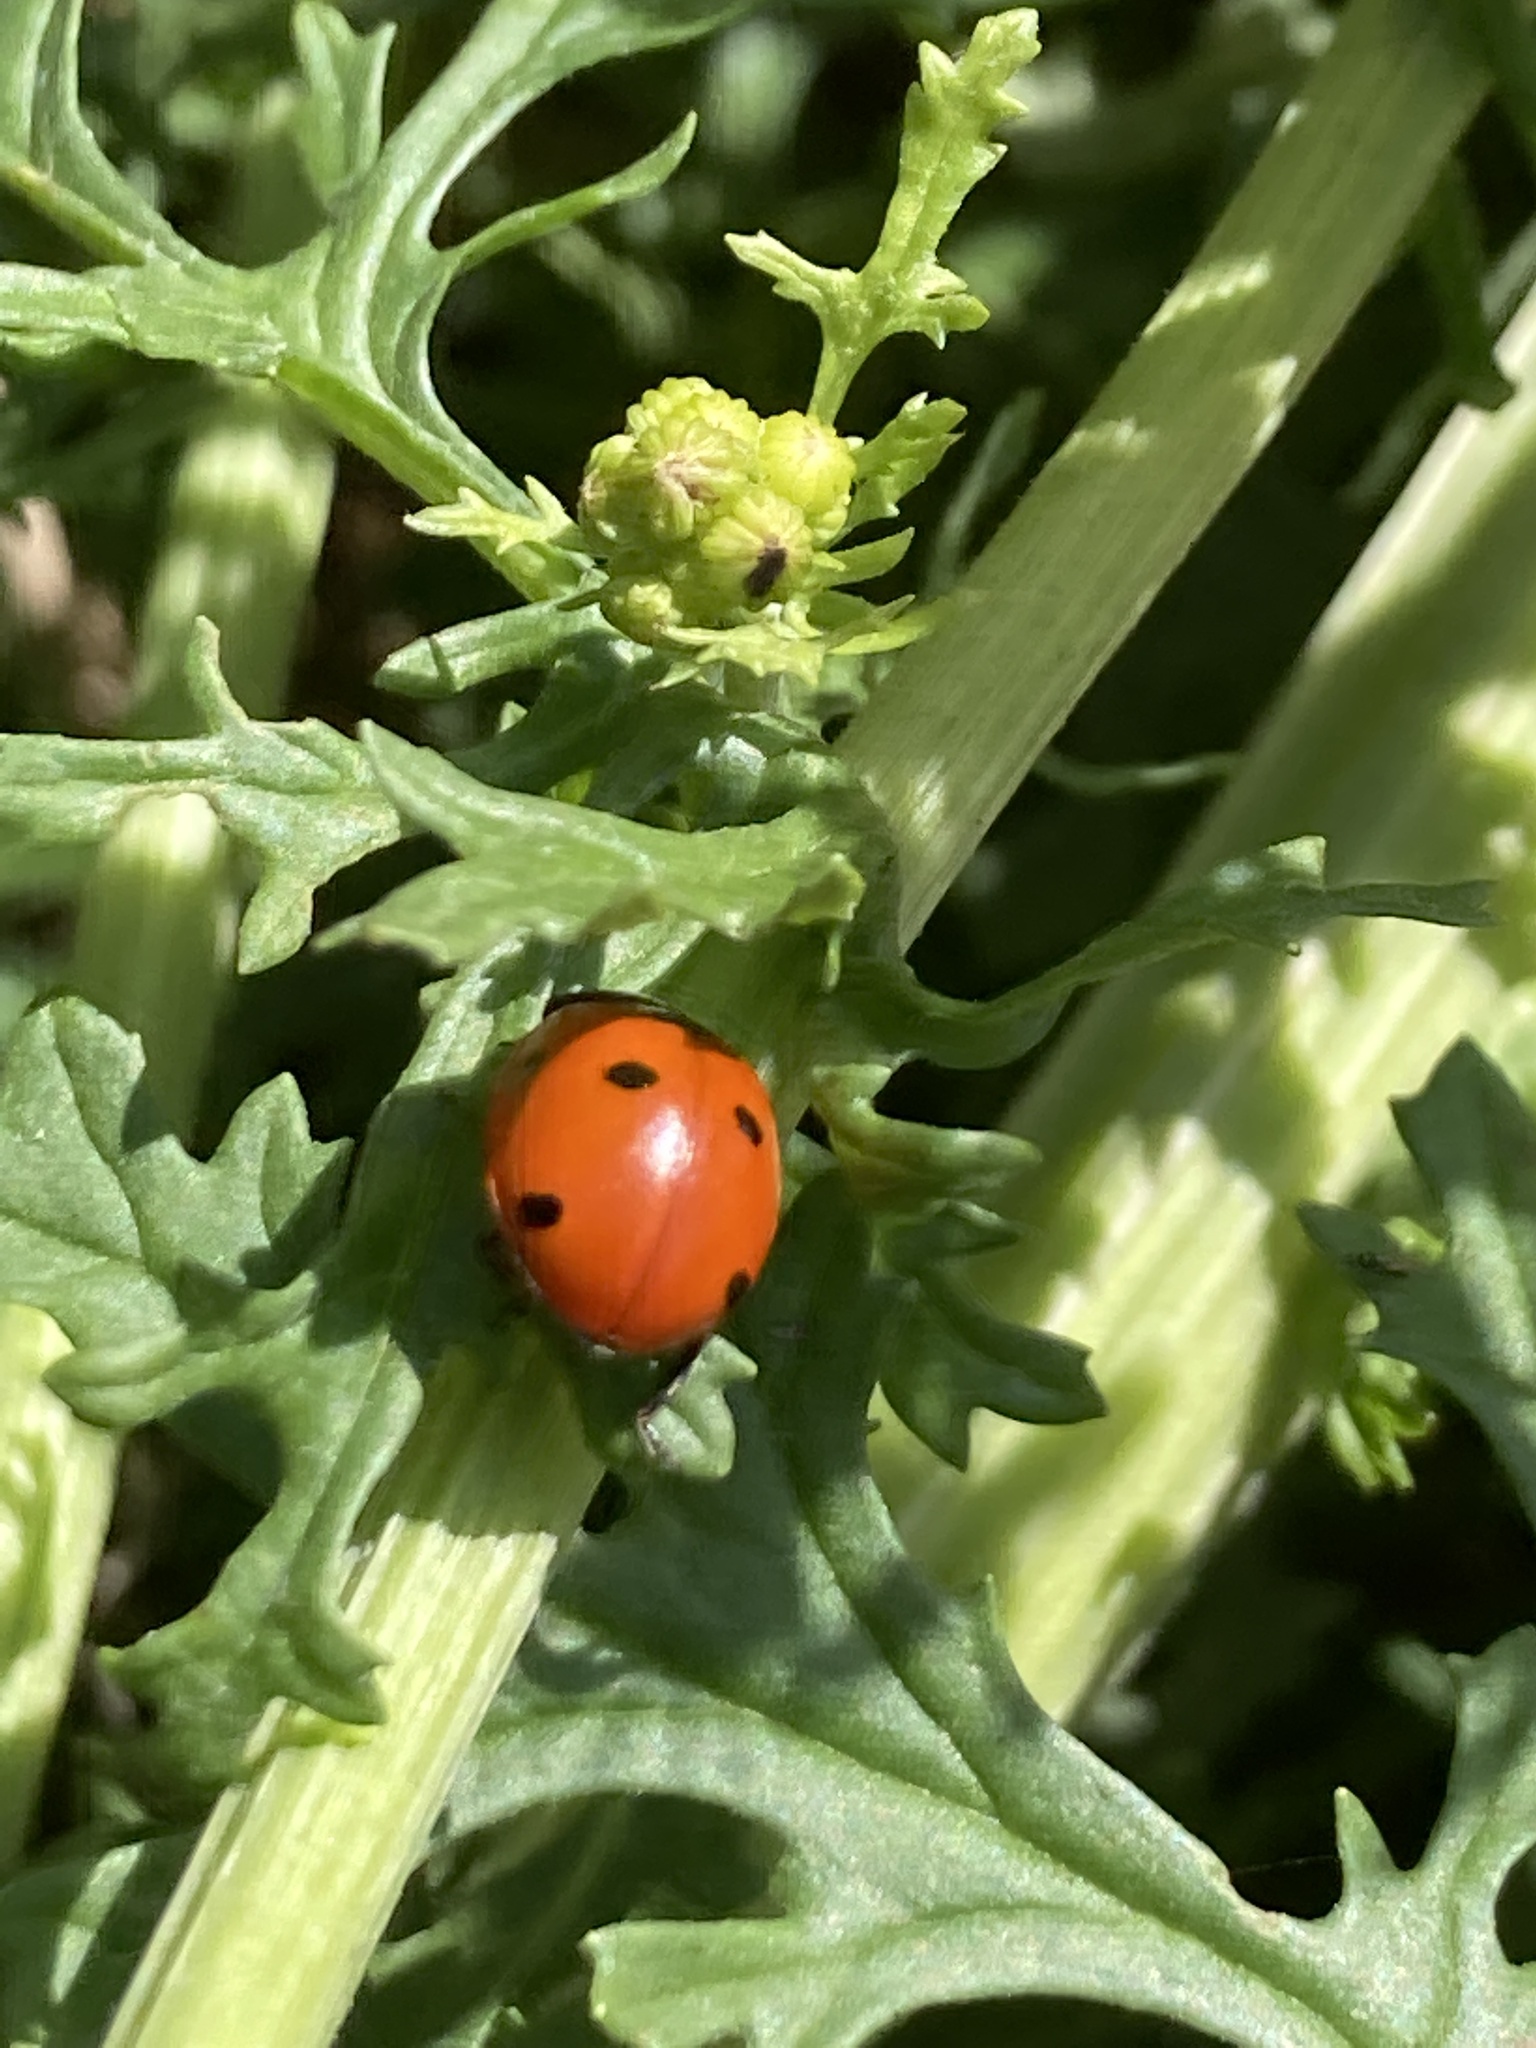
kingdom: Animalia
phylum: Arthropoda
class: Insecta
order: Coleoptera
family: Coccinellidae
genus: Coccinella
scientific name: Coccinella septempunctata
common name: Sevenspotted lady beetle
